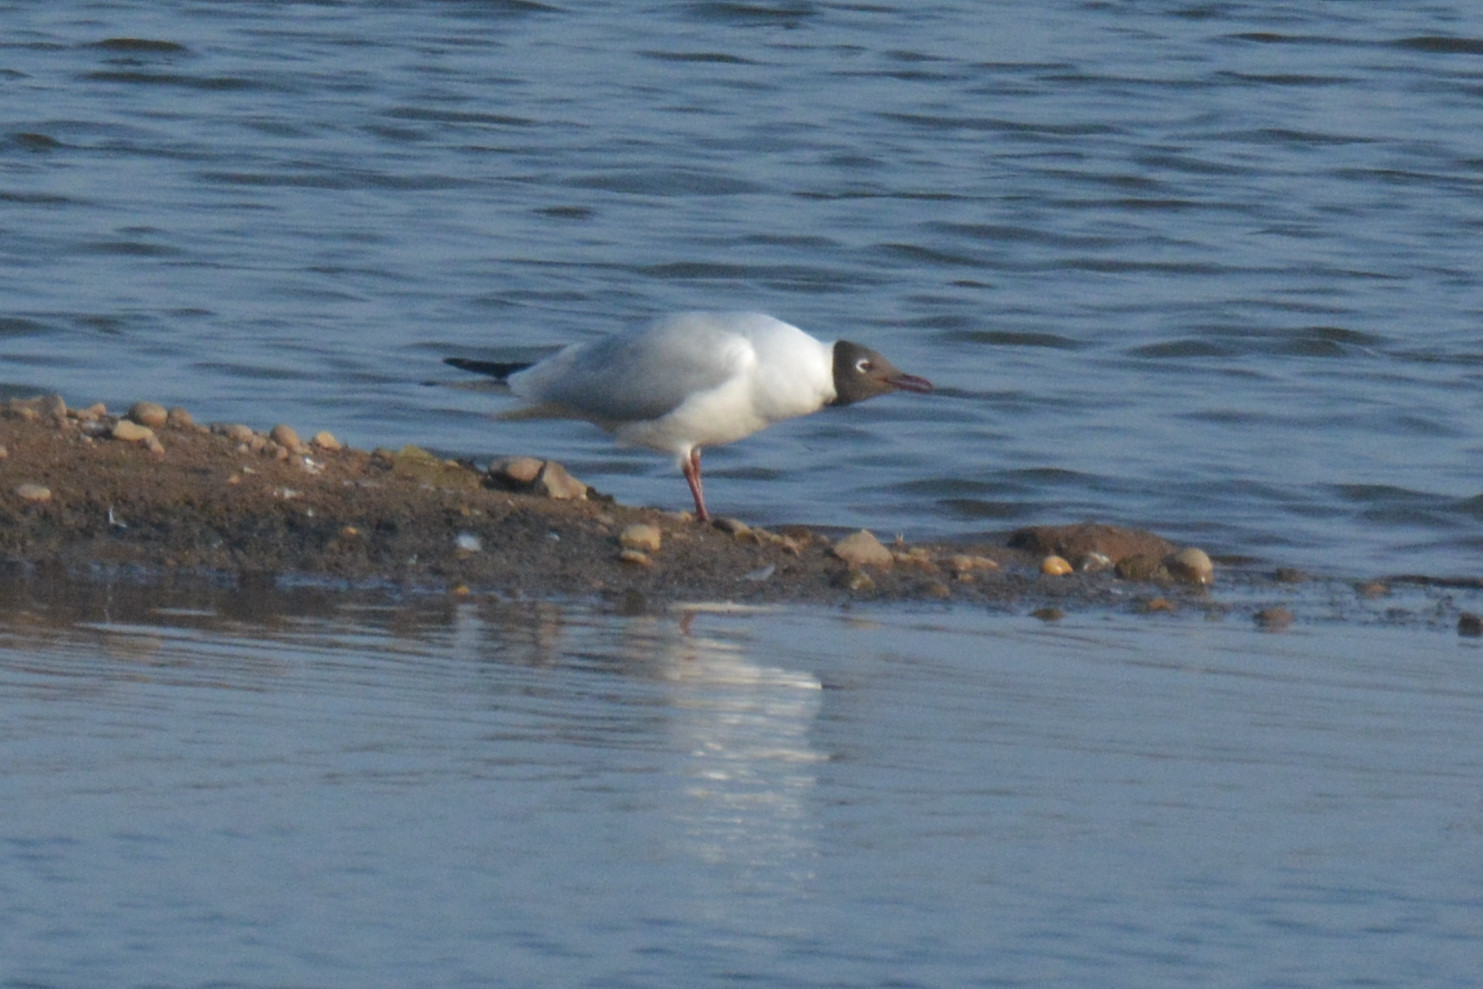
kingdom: Animalia
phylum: Chordata
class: Aves
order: Charadriiformes
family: Laridae
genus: Chroicocephalus
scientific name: Chroicocephalus ridibundus
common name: Black-headed gull
